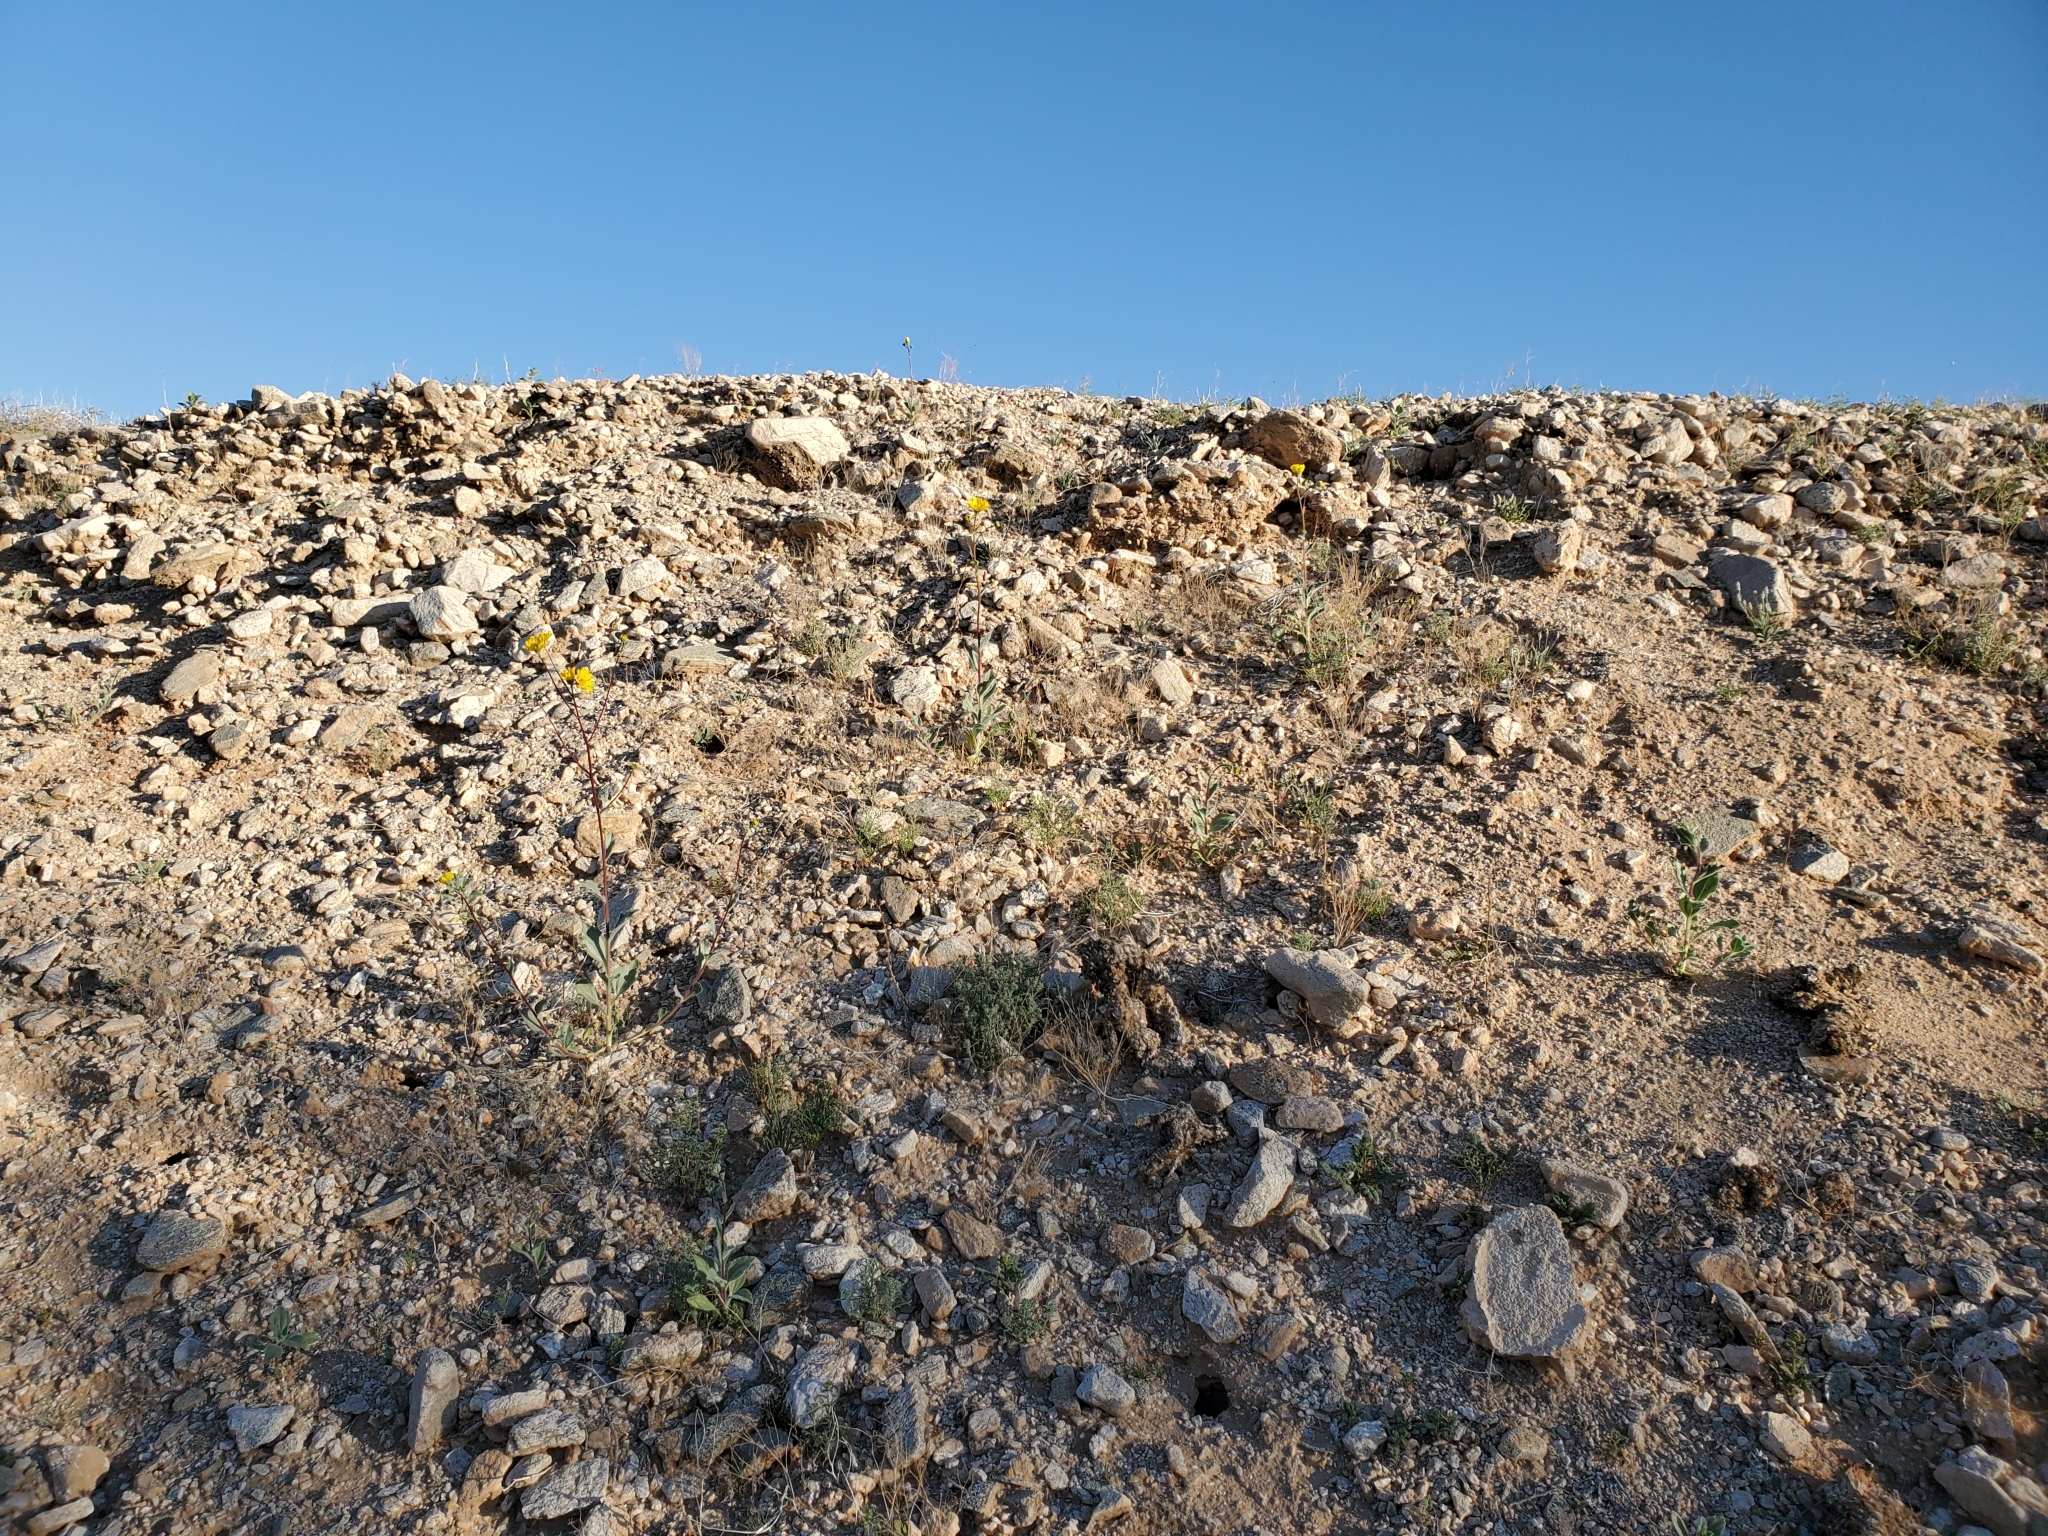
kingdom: Plantae
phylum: Tracheophyta
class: Magnoliopsida
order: Asterales
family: Asteraceae
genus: Geraea
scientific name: Geraea canescens
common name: Desert-gold
